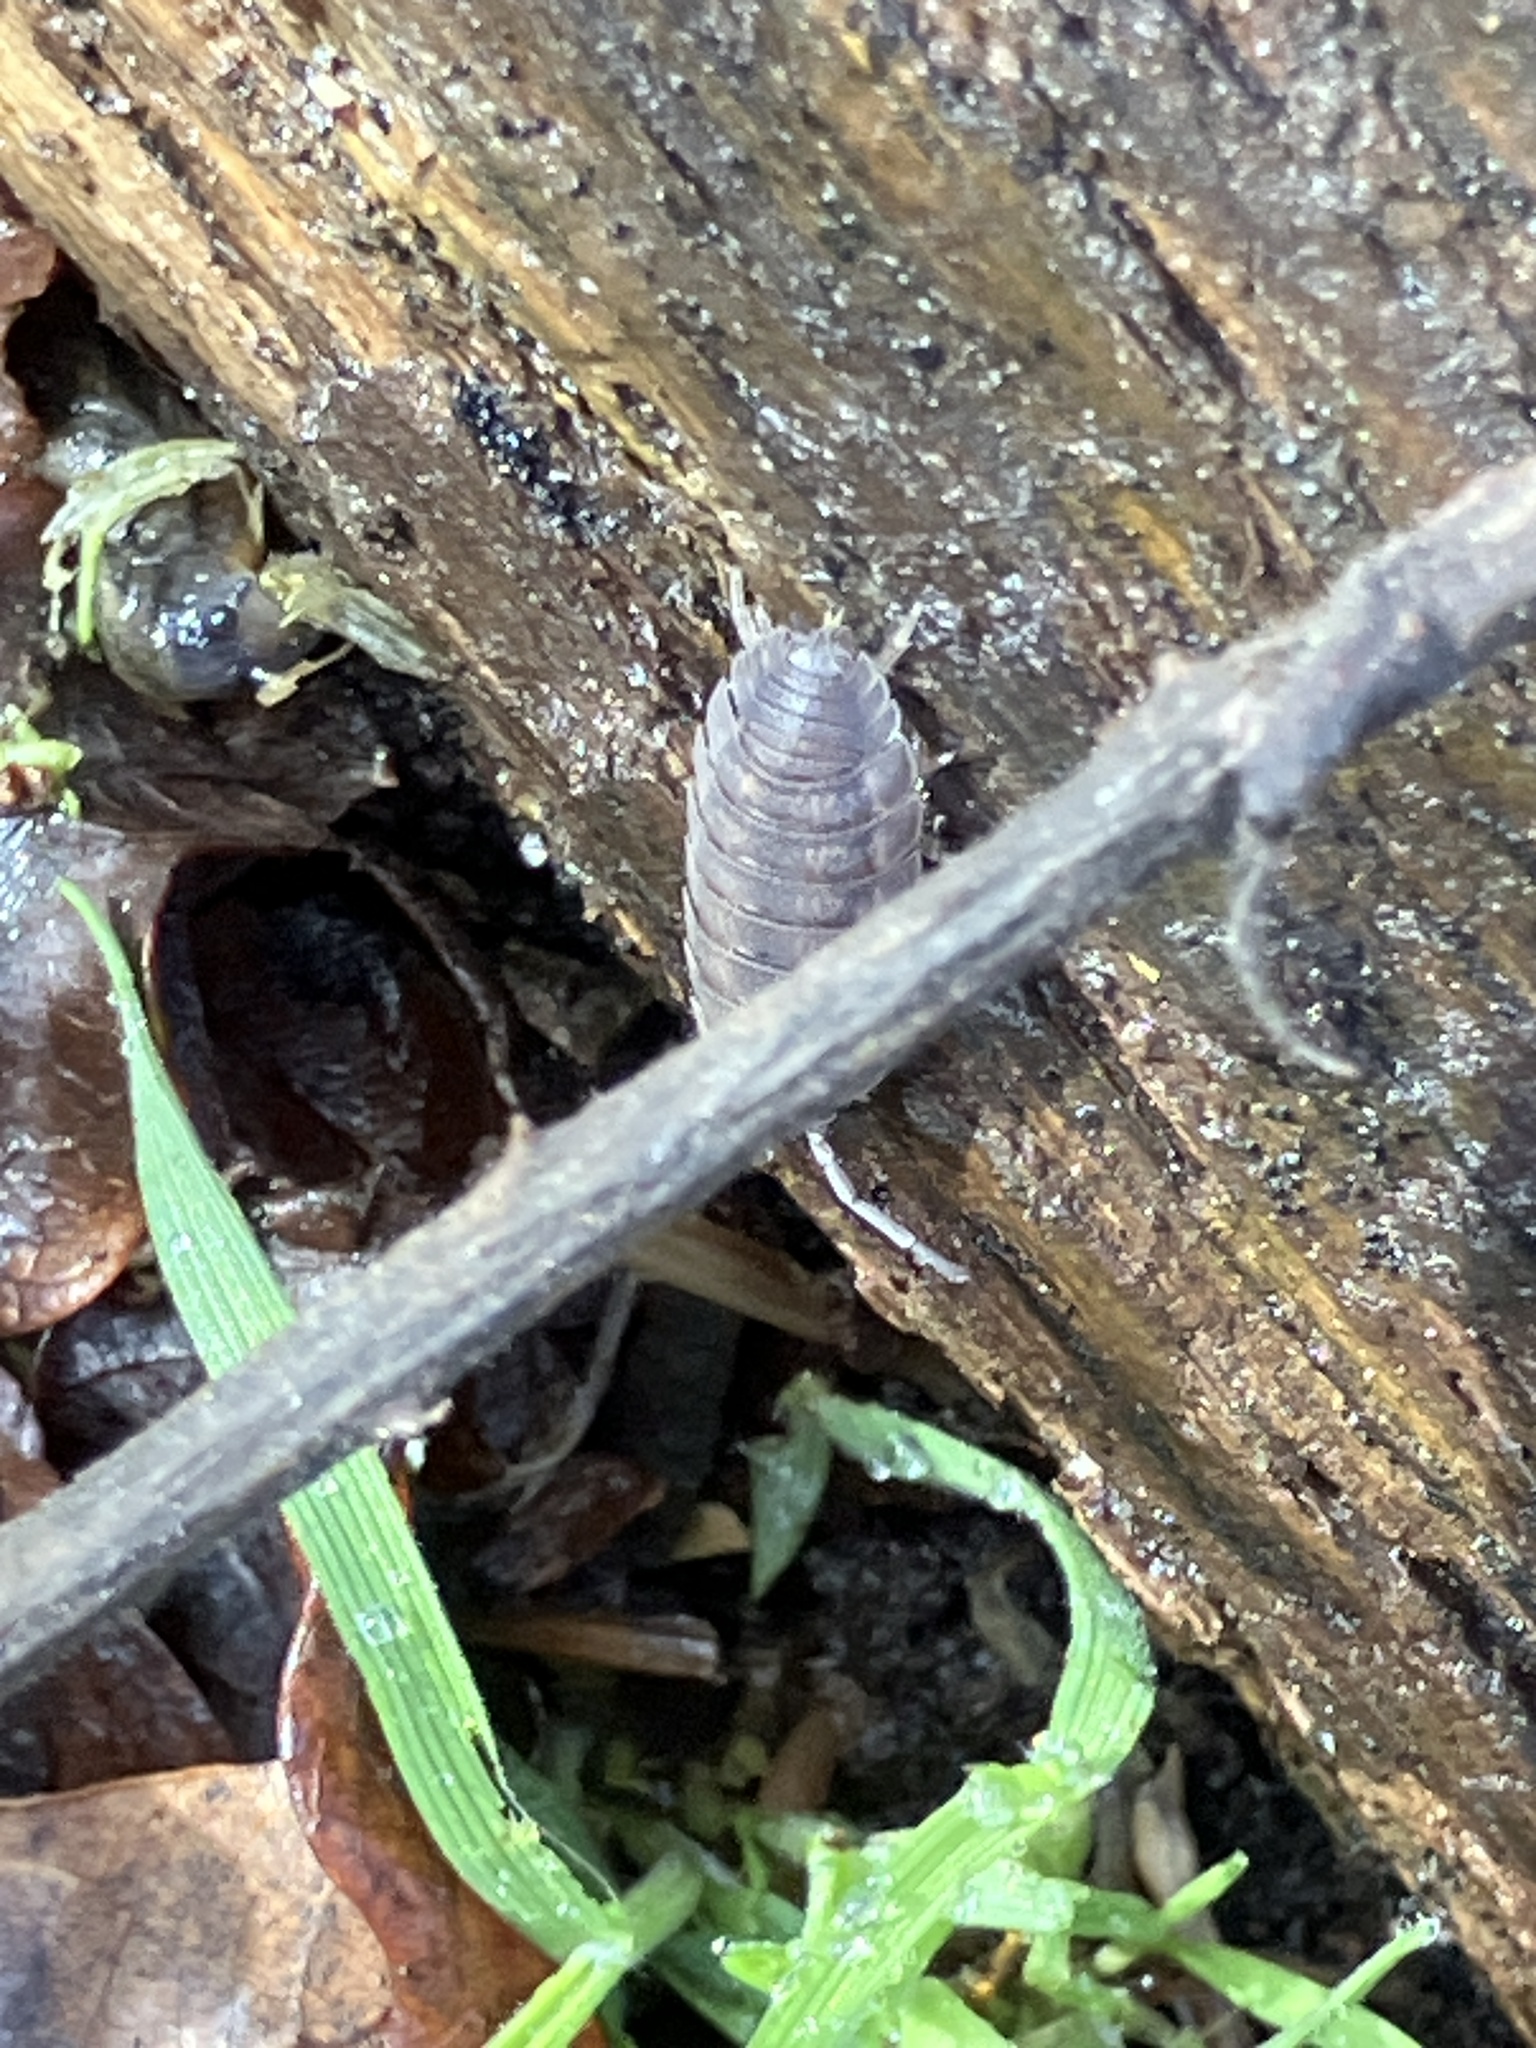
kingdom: Animalia
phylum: Arthropoda
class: Malacostraca
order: Isopoda
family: Porcellionidae
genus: Porcellio
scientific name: Porcellio scaber
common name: Common rough woodlouse
